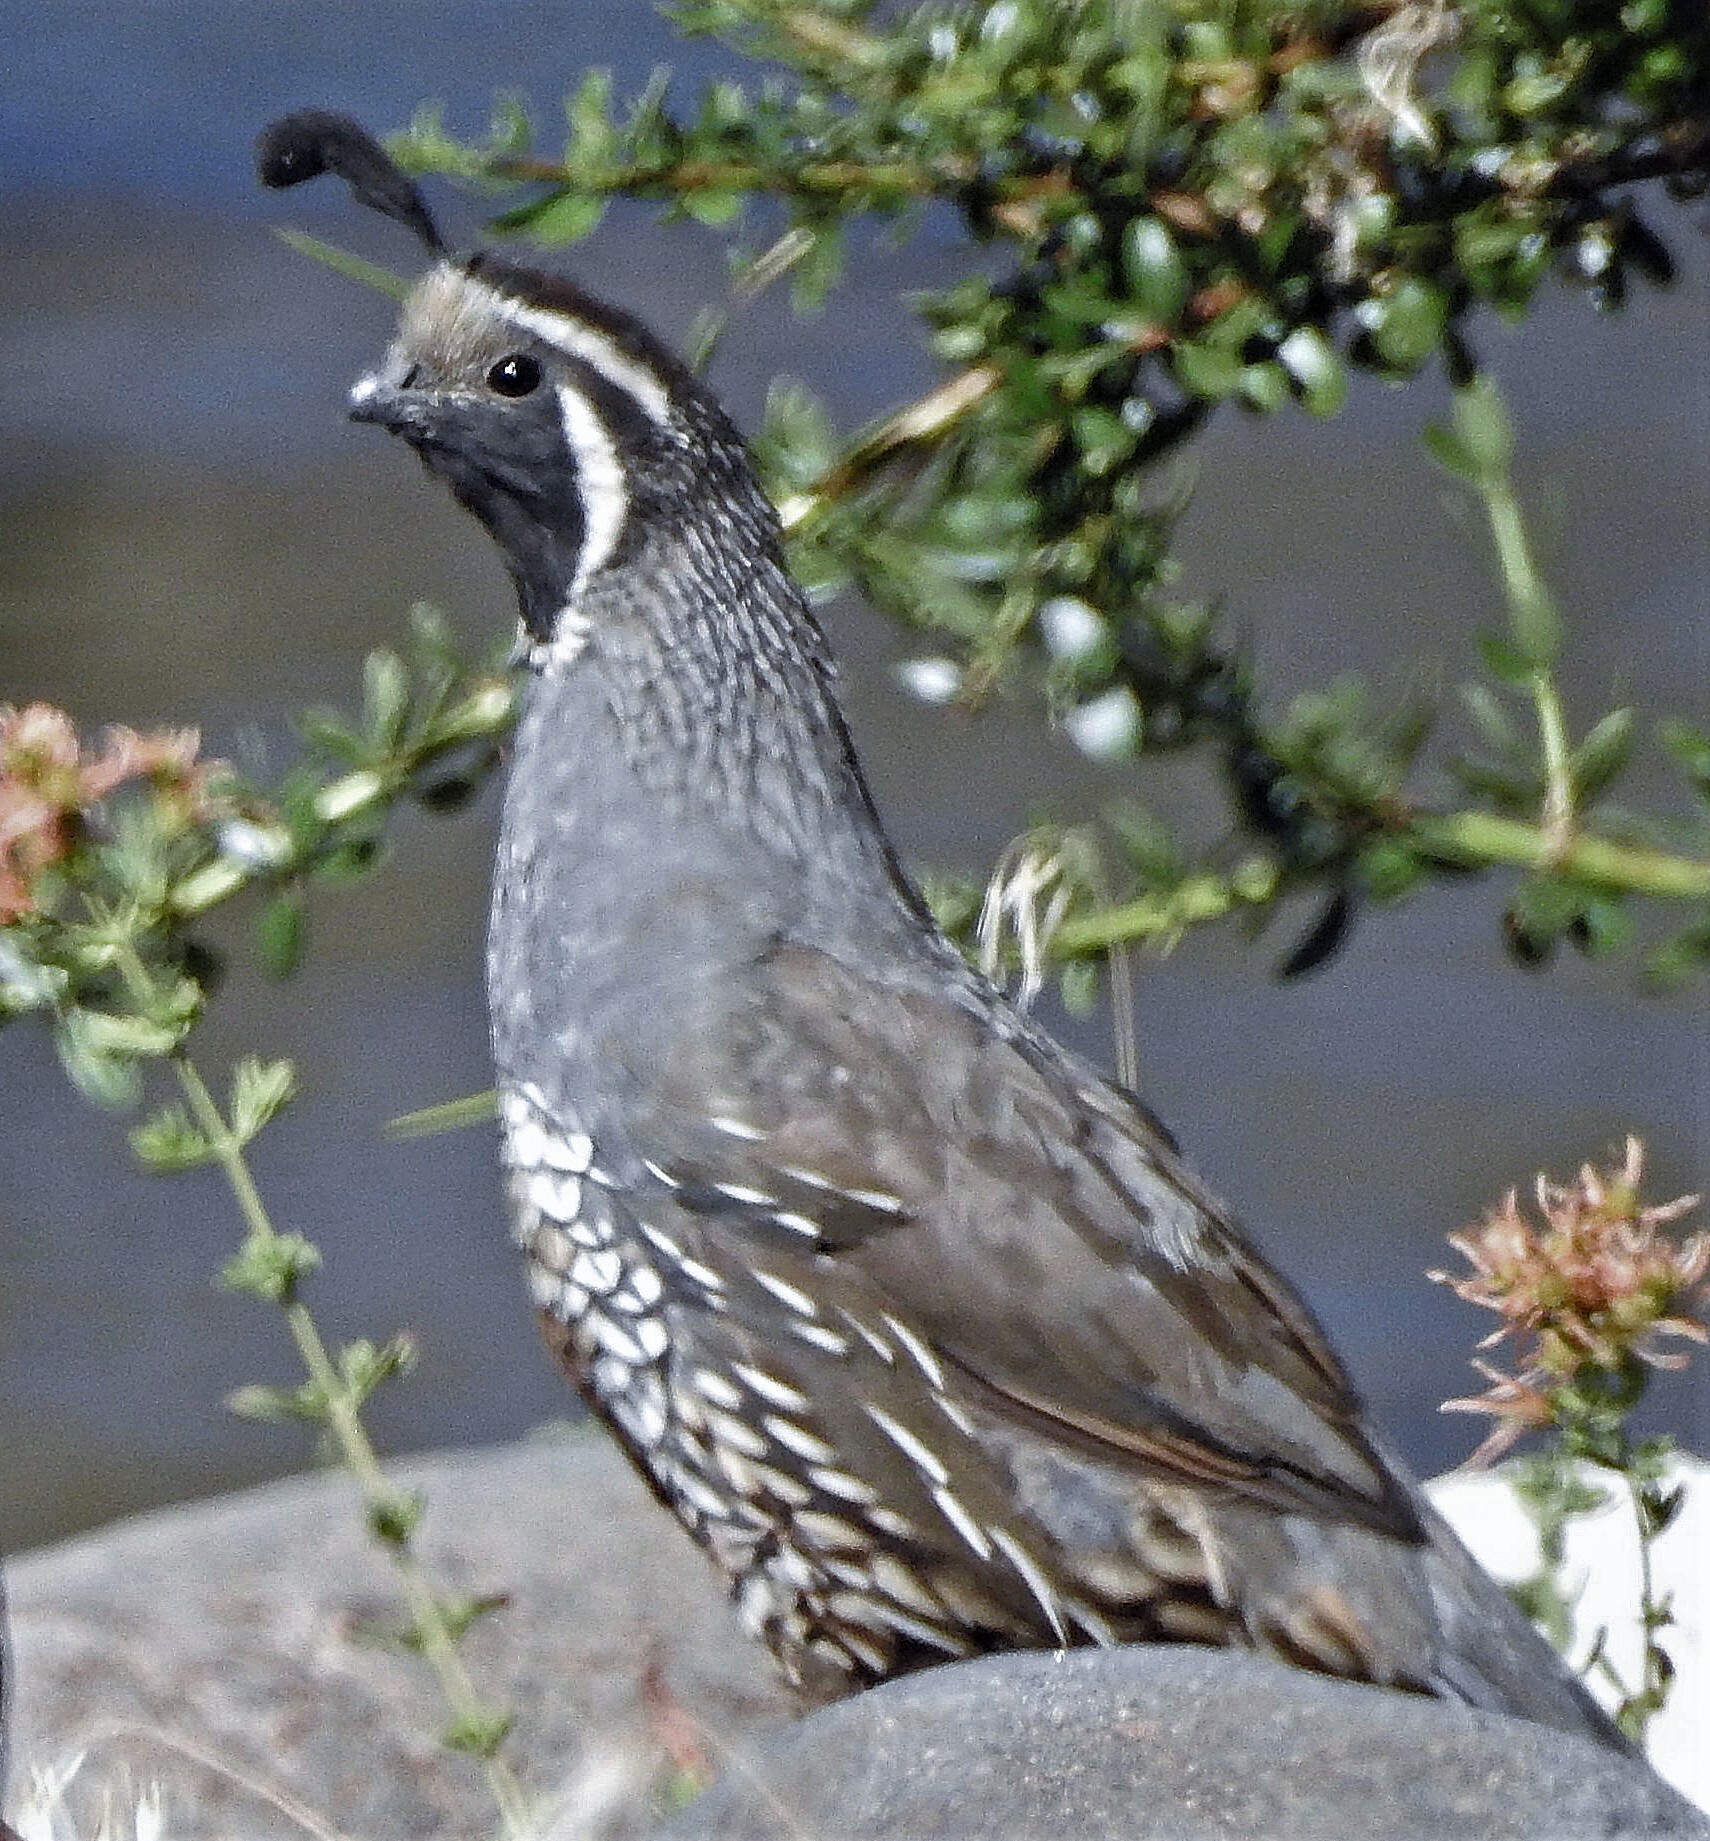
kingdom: Animalia
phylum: Chordata
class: Aves
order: Galliformes
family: Odontophoridae
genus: Callipepla
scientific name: Callipepla californica
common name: California quail
